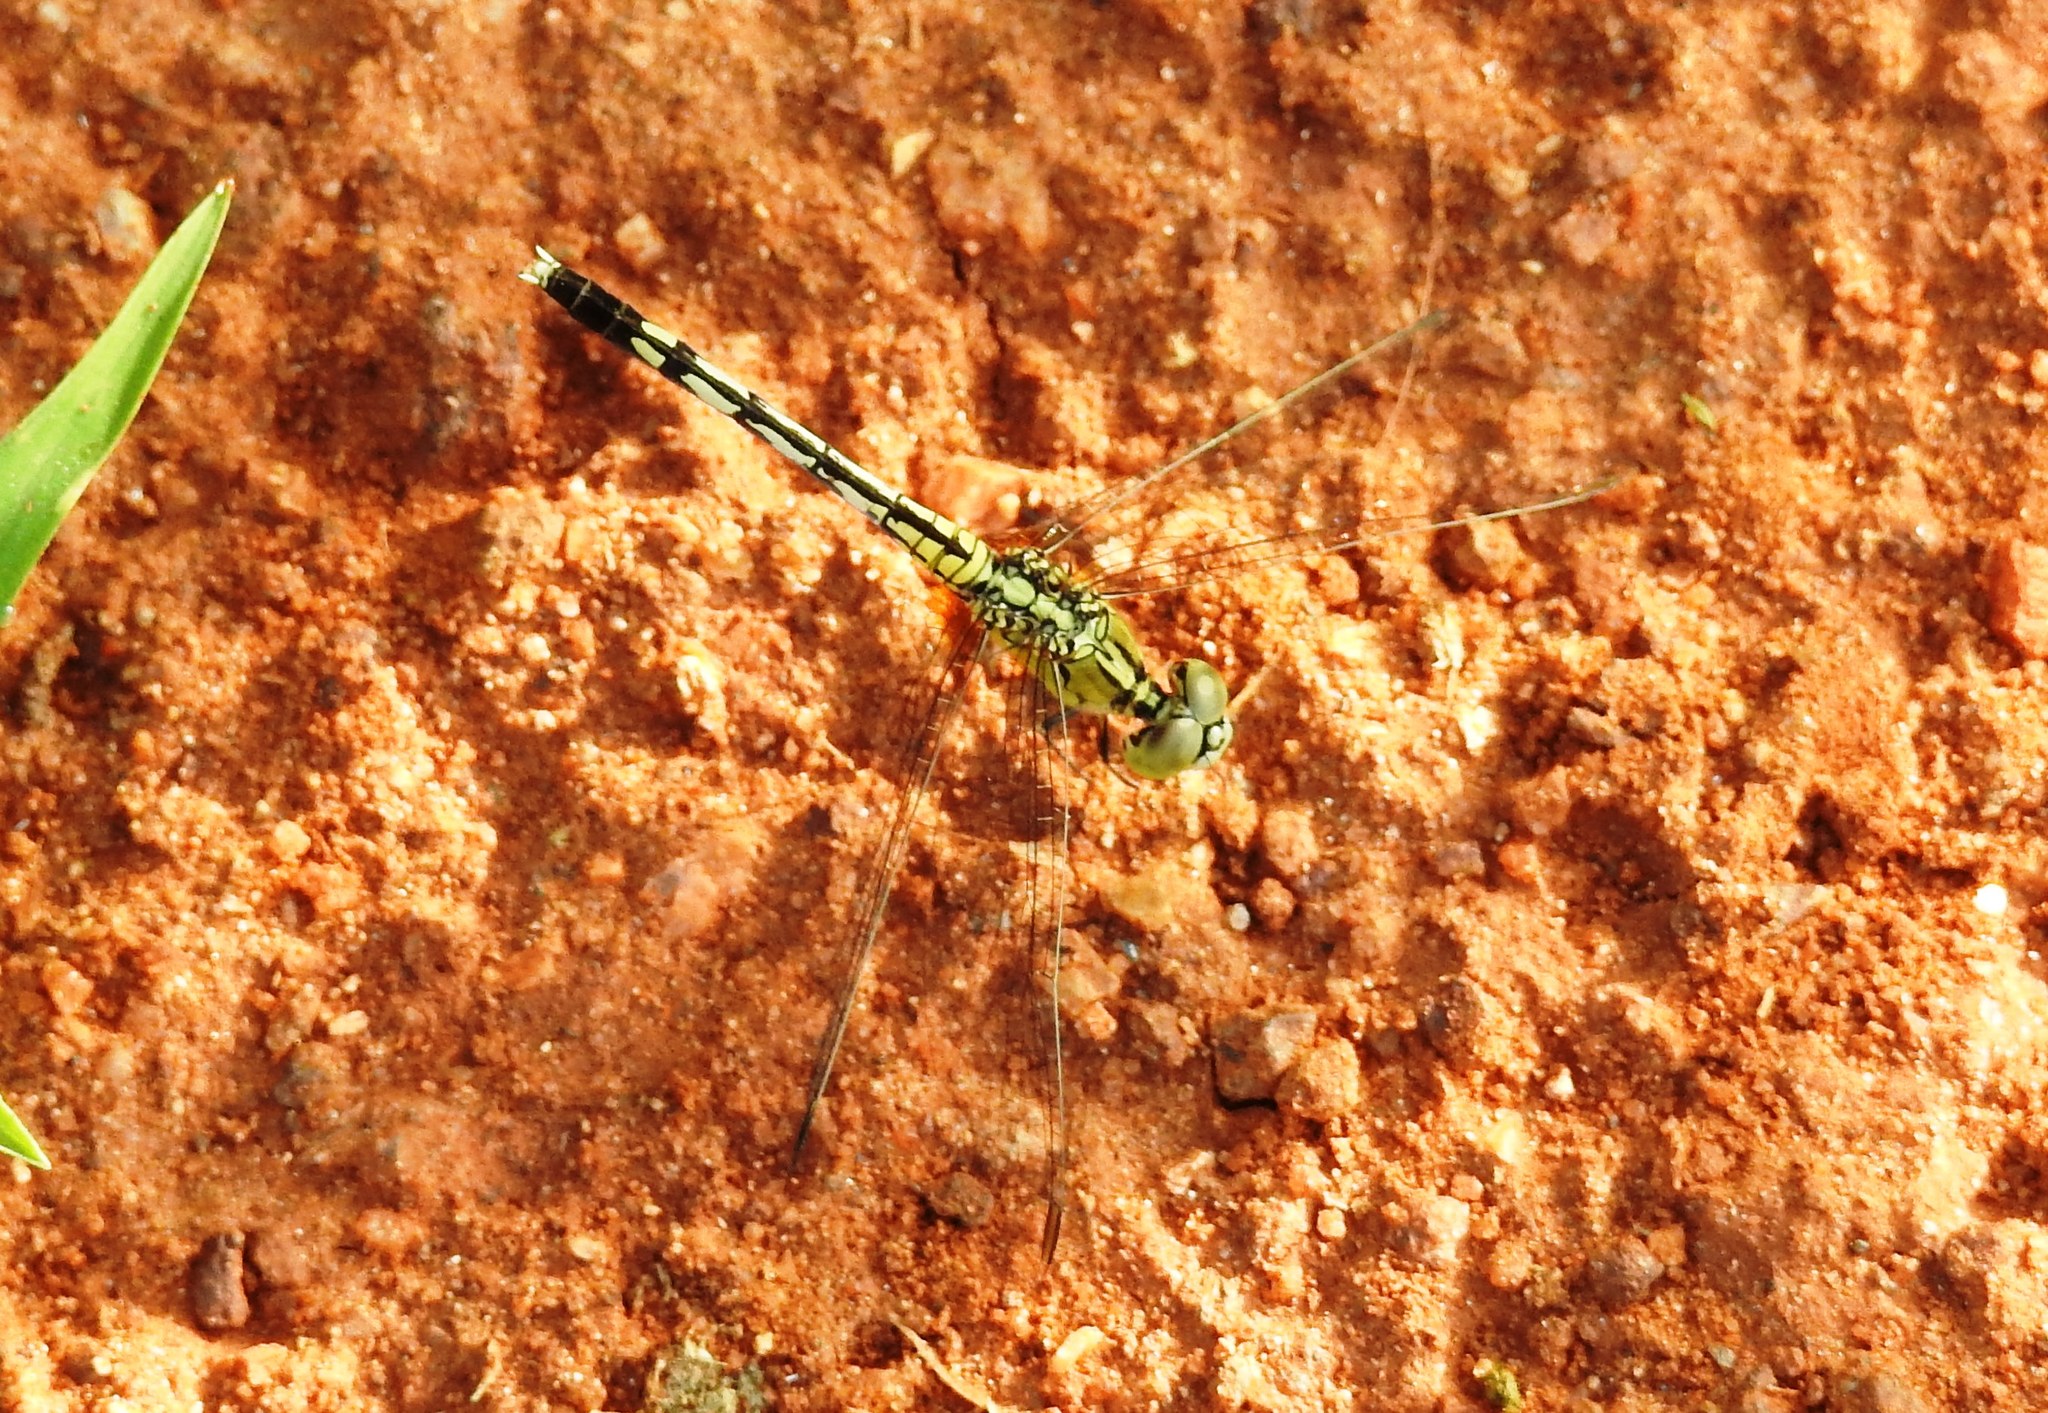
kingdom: Animalia
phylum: Arthropoda
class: Insecta
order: Odonata
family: Libellulidae
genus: Diplacodes
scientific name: Diplacodes trivialis
